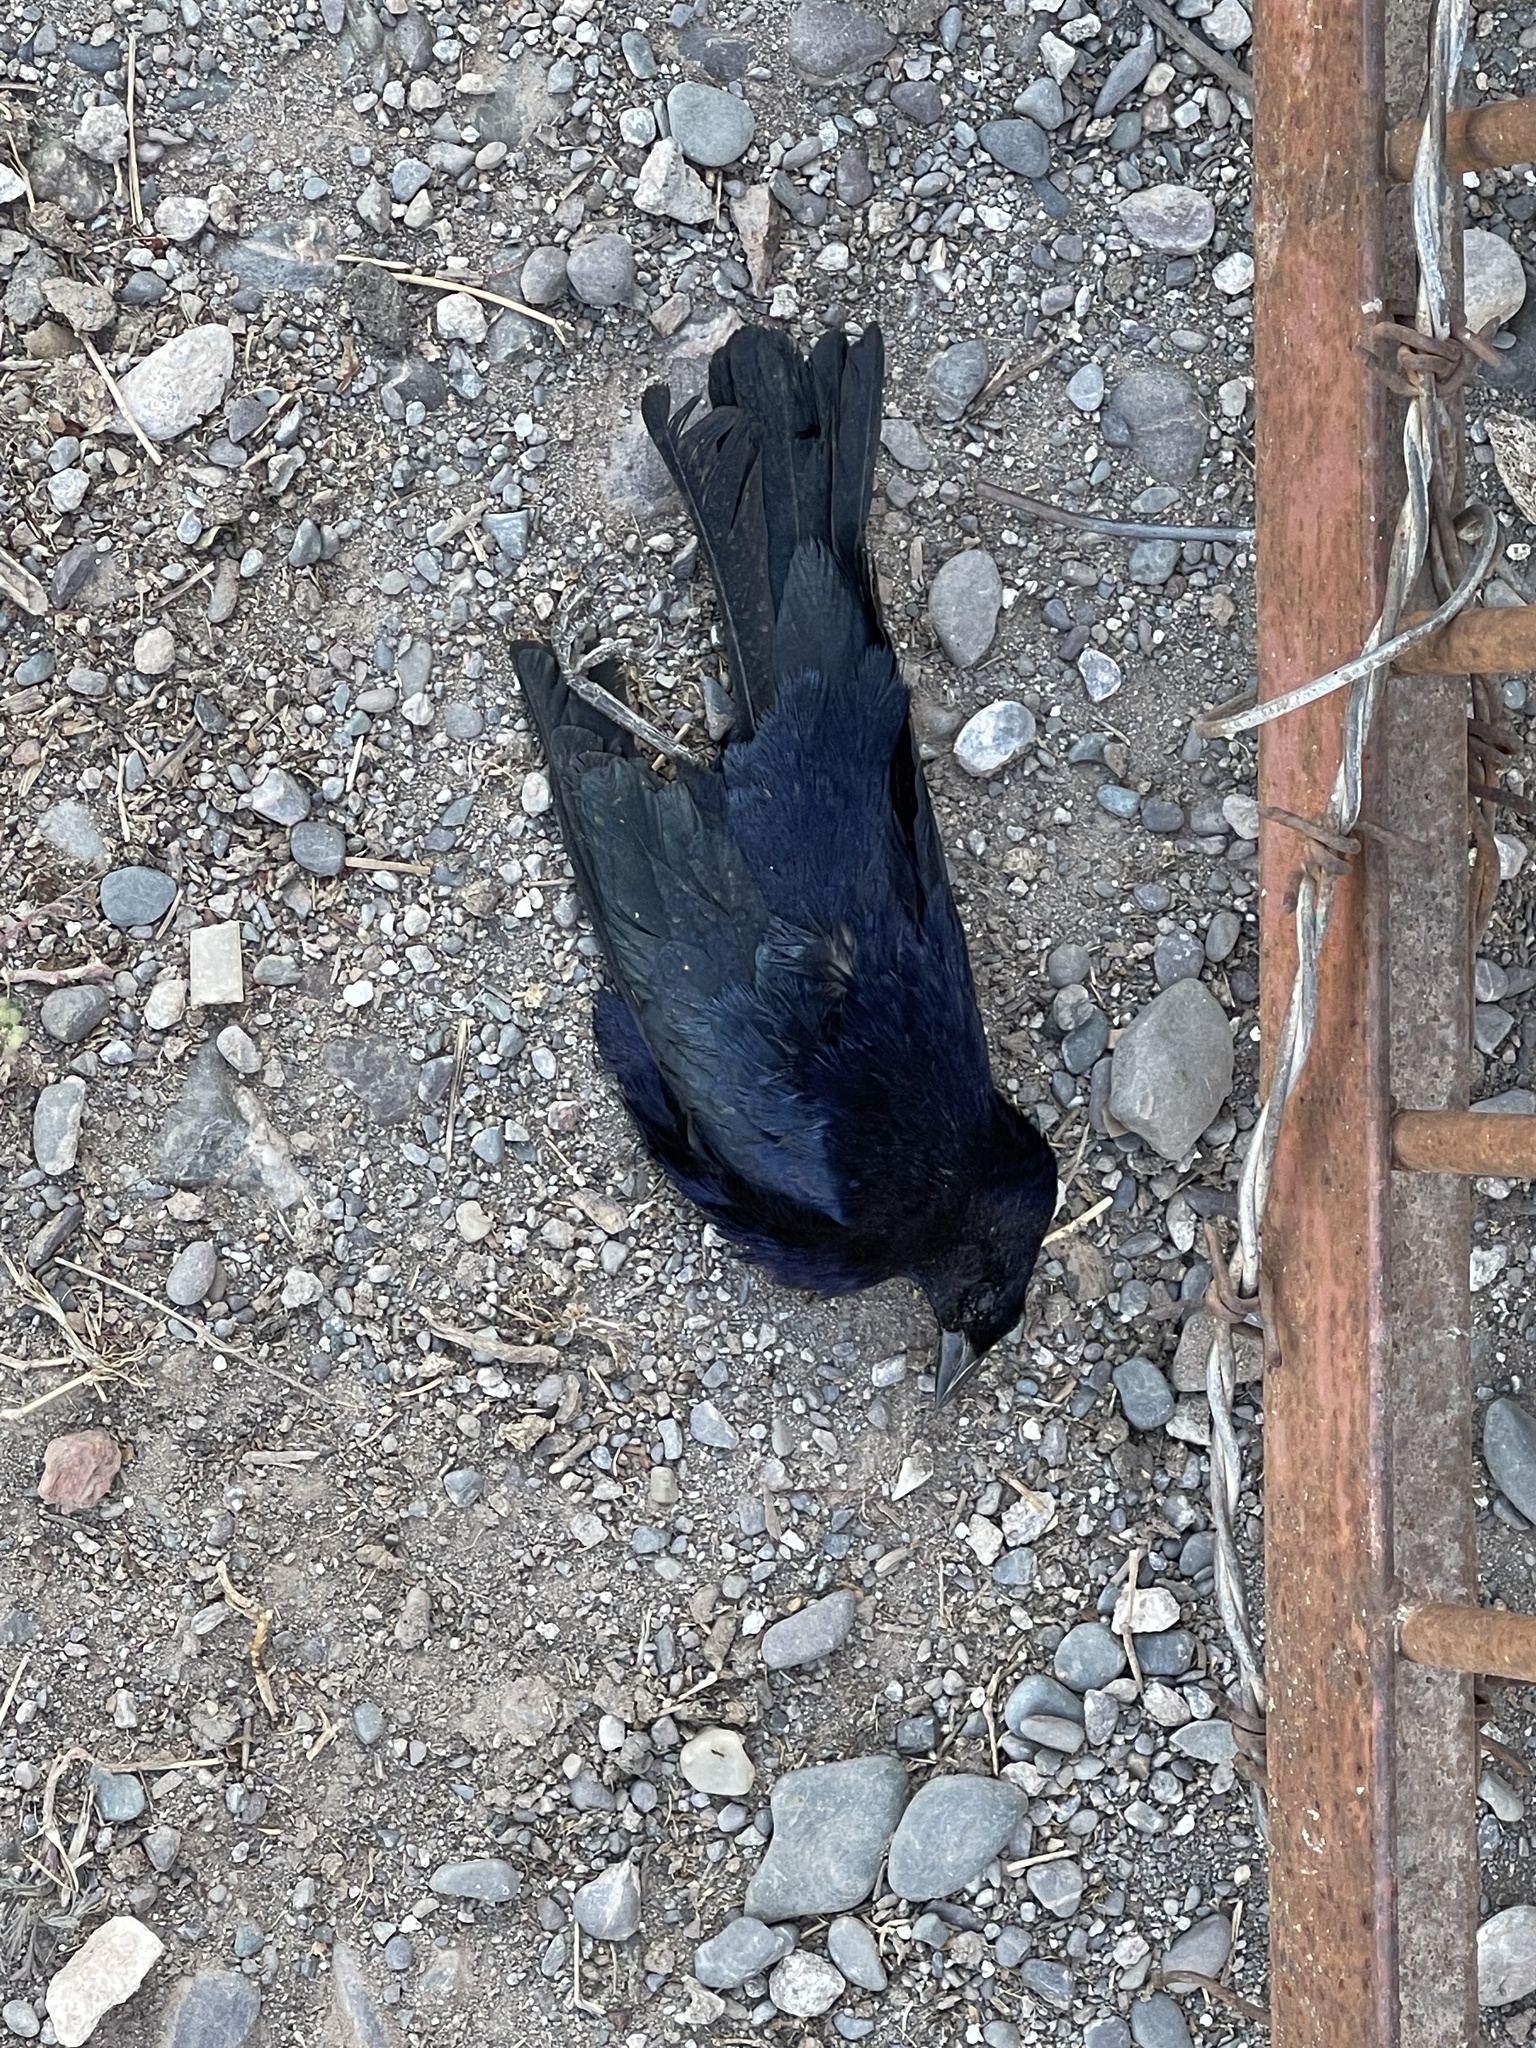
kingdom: Animalia
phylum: Chordata
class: Aves
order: Passeriformes
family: Icteridae
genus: Molothrus
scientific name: Molothrus bonariensis
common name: Shiny cowbird
